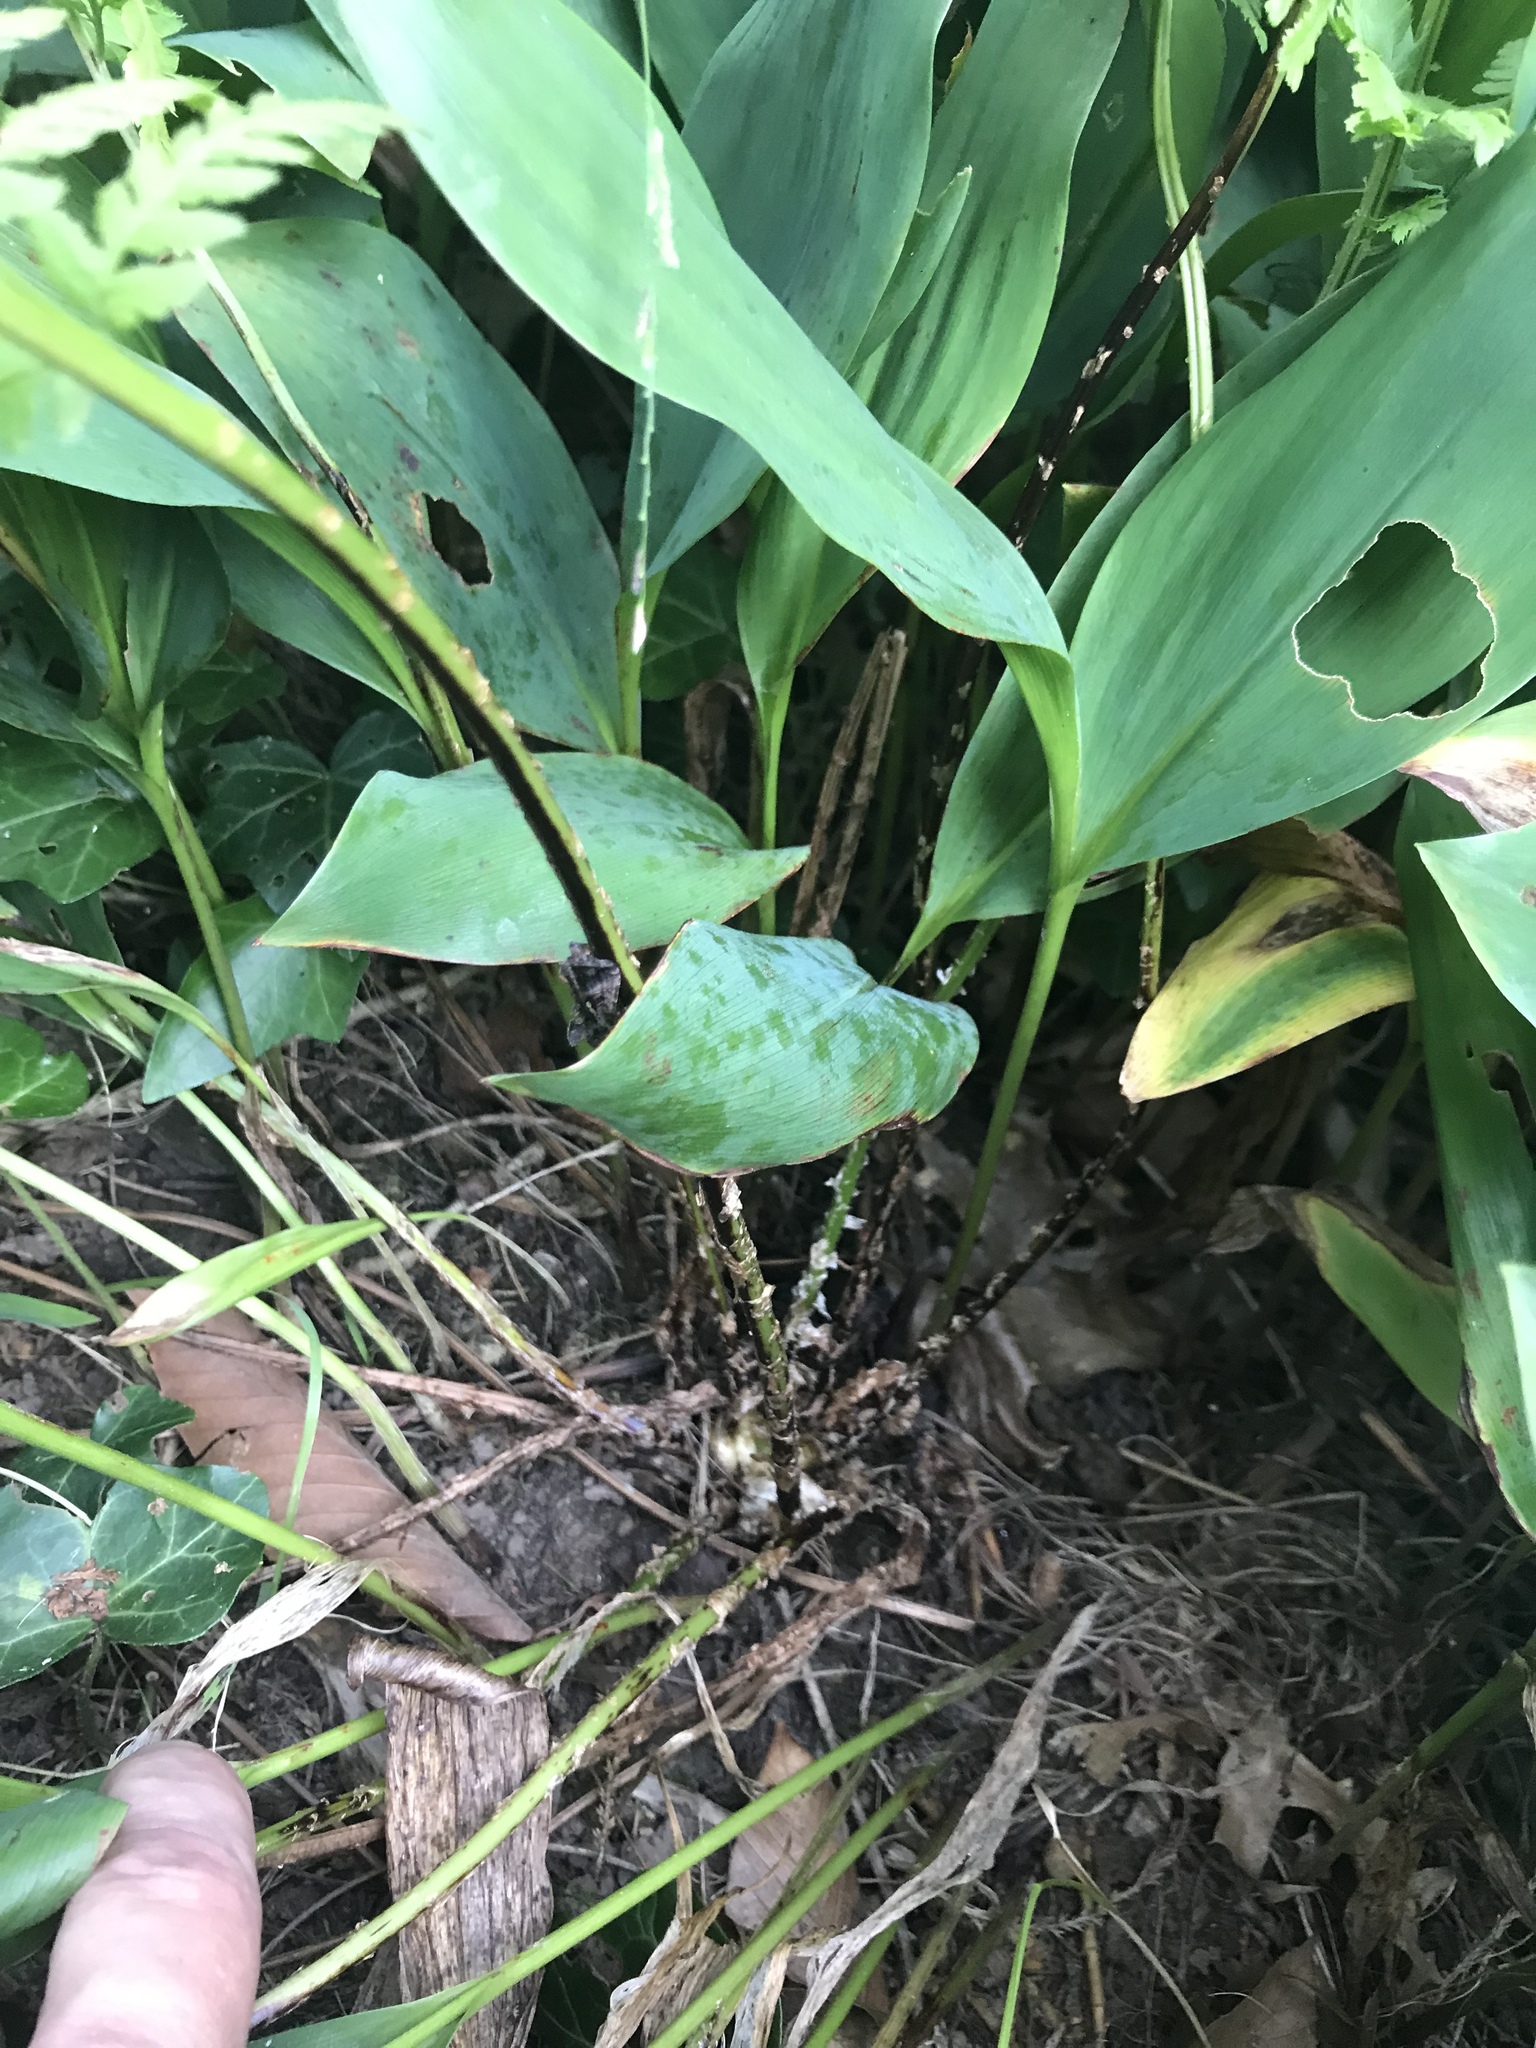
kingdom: Plantae
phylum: Tracheophyta
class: Polypodiopsida
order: Polypodiales
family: Dryopteridaceae
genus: Dryopteris
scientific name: Dryopteris carthusiana
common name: Narrow buckler-fern
